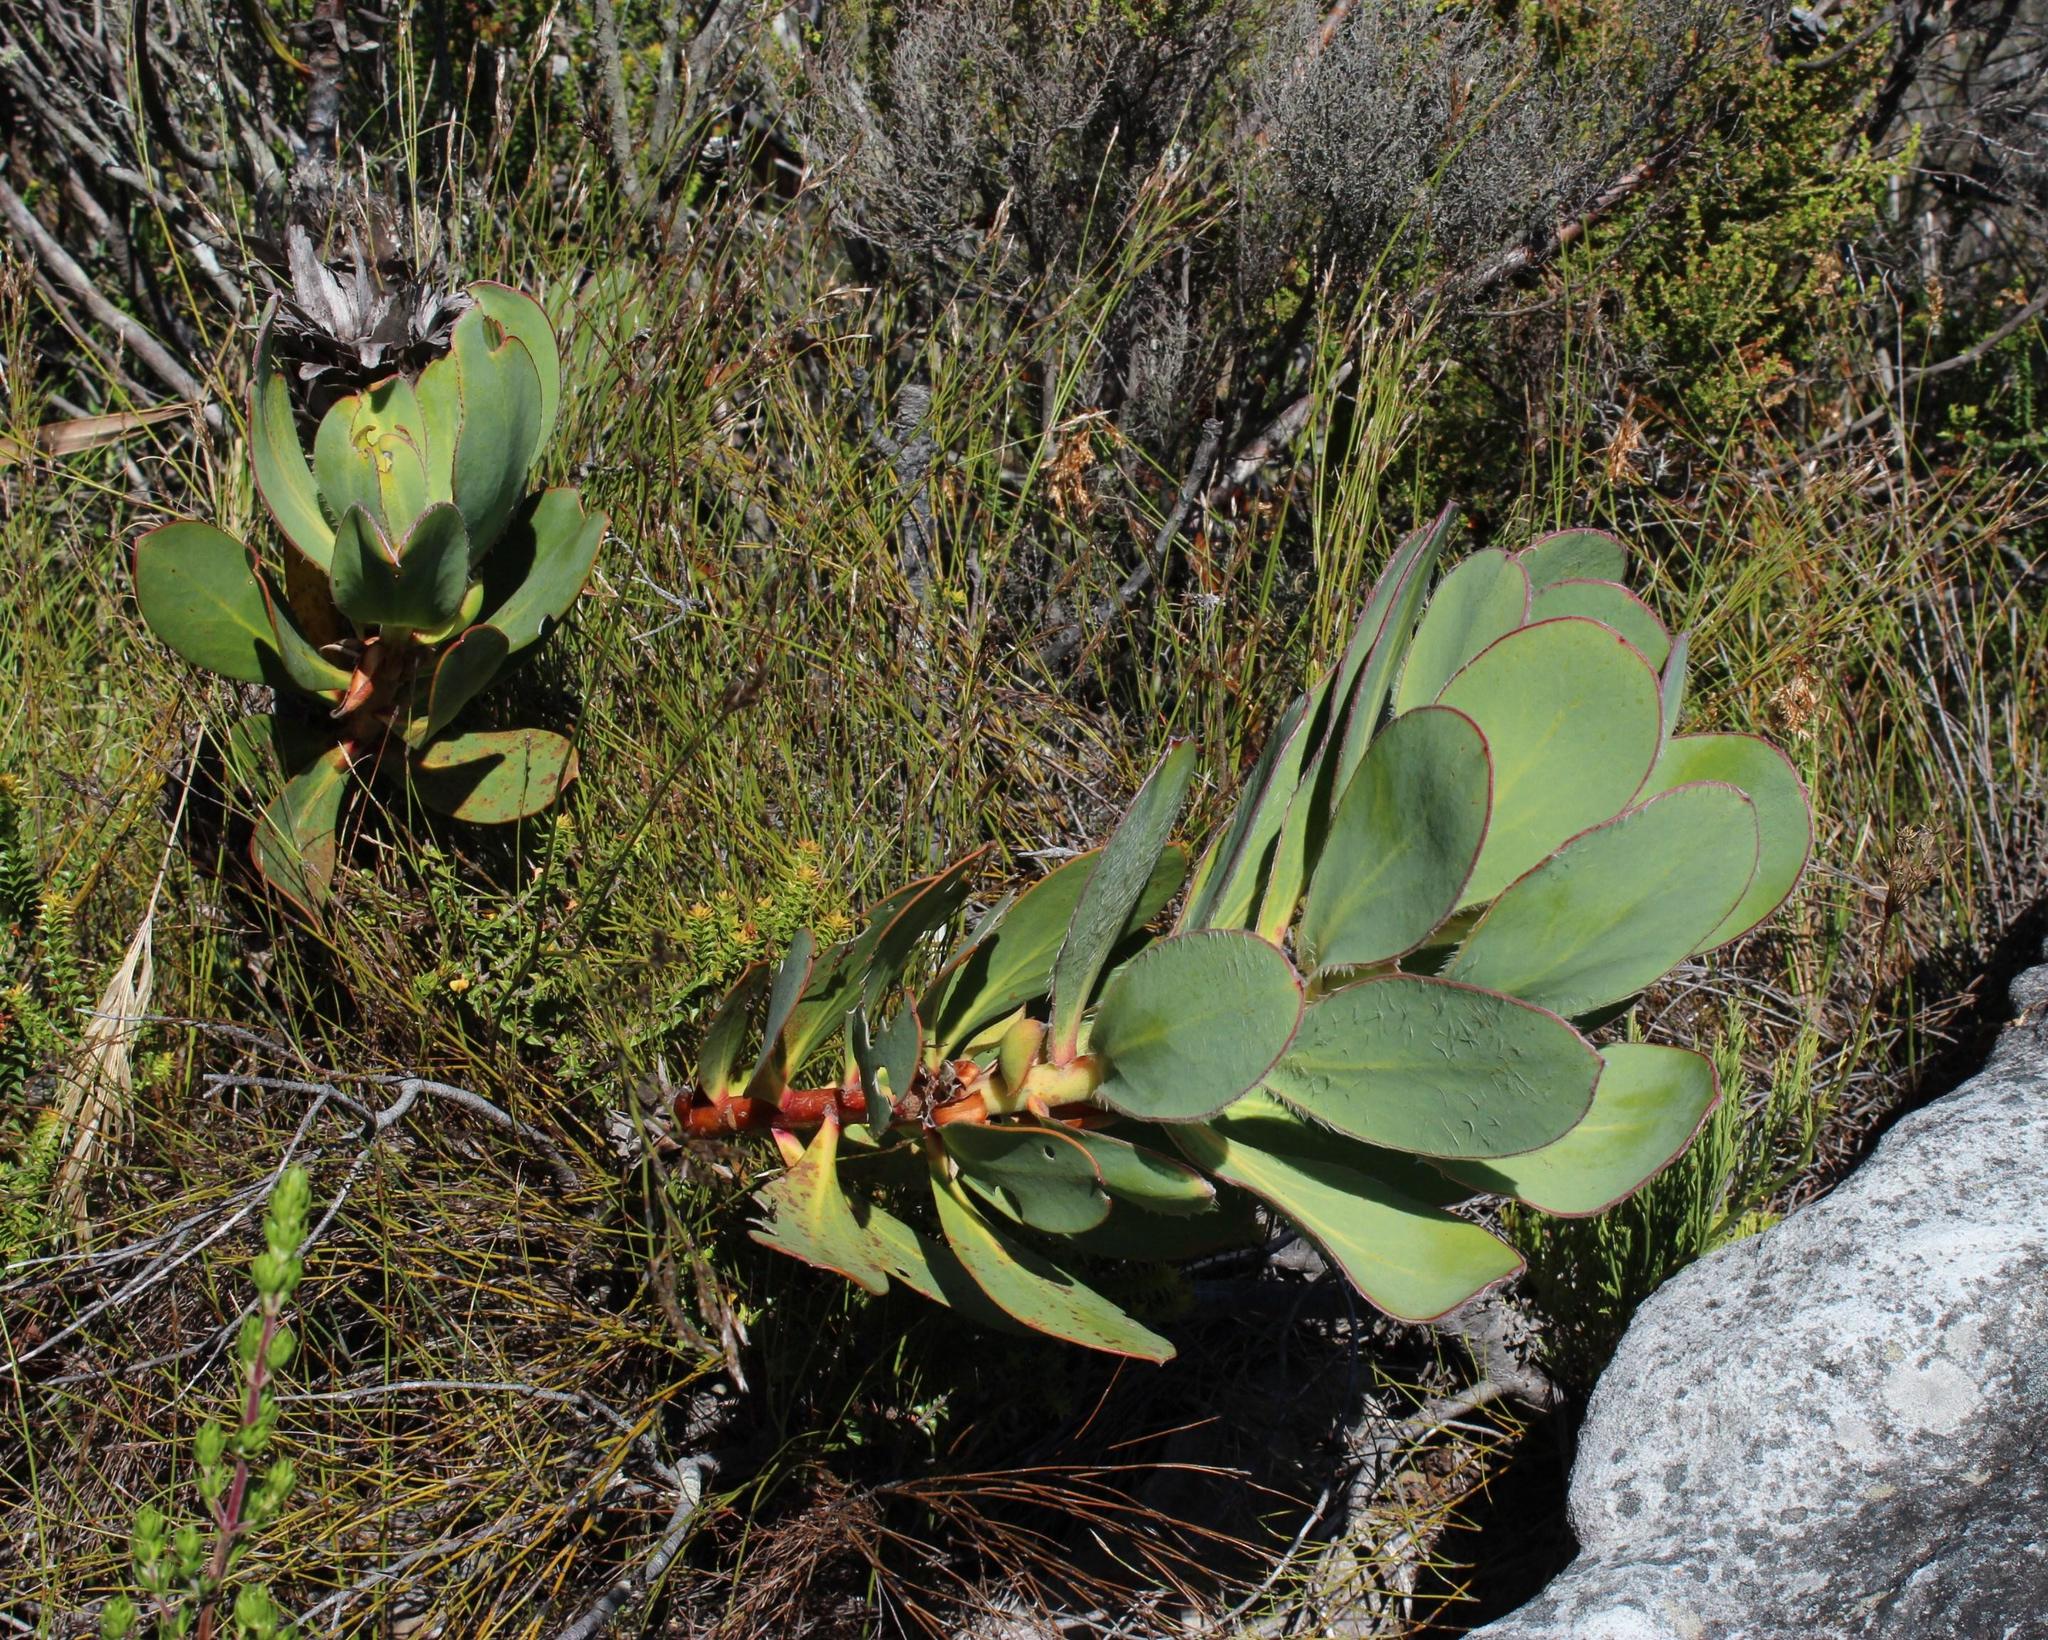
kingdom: Plantae
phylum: Tracheophyta
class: Magnoliopsida
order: Proteales
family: Proteaceae
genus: Protea
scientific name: Protea speciosa
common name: Brown-beard sugarbush
